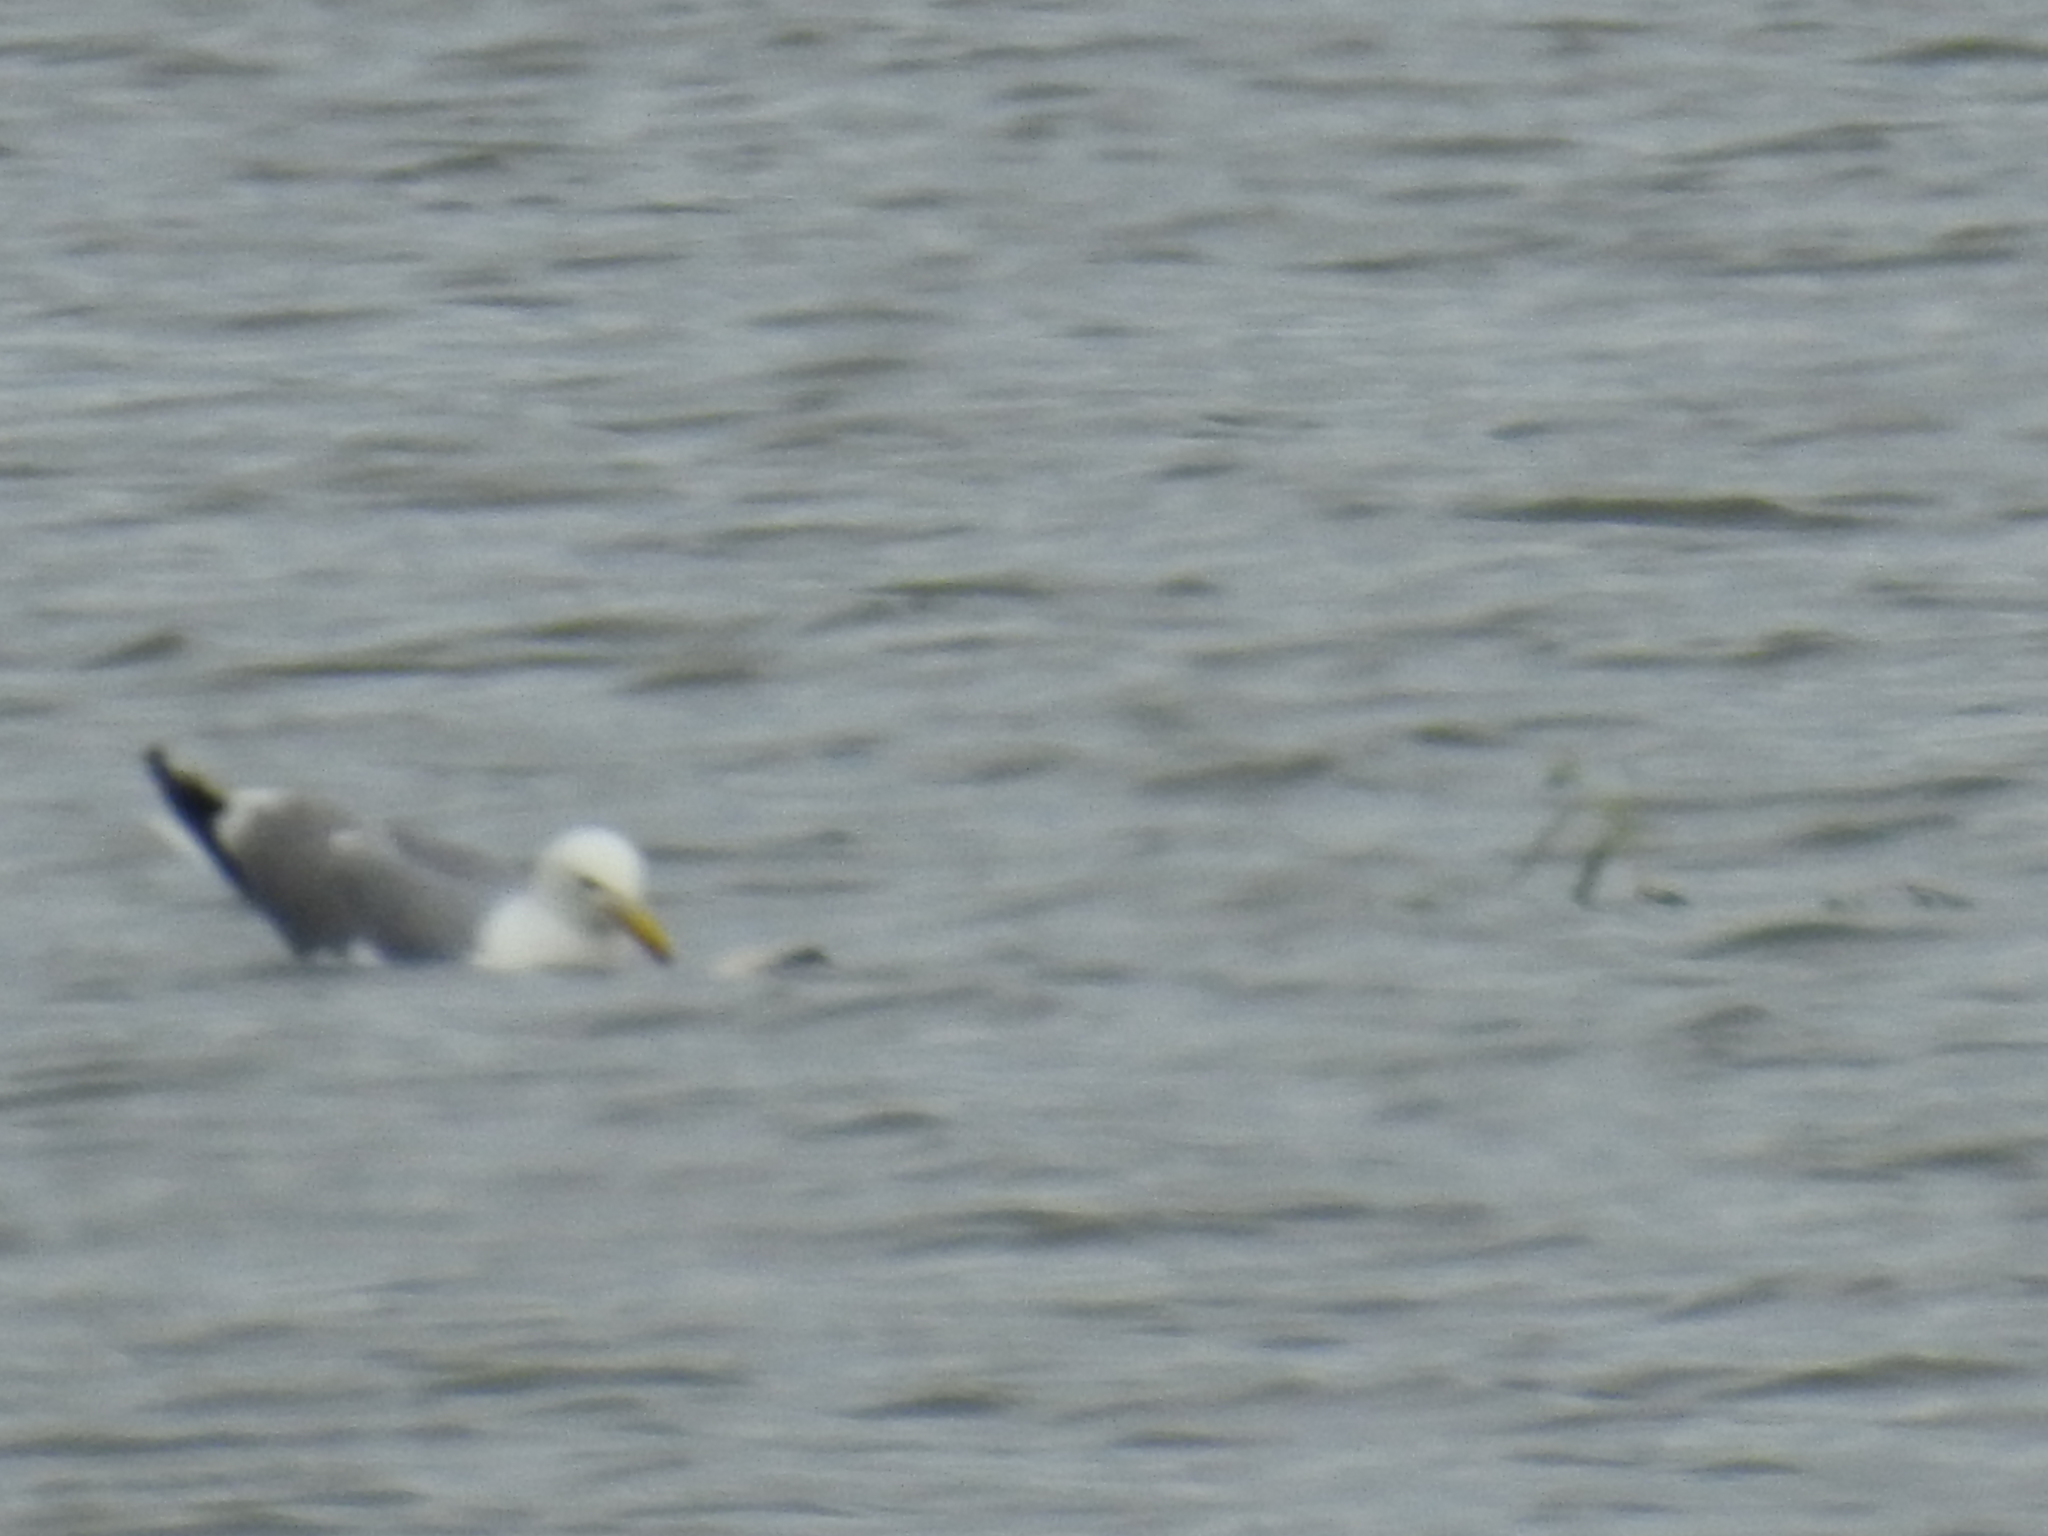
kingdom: Animalia
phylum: Chordata
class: Aves
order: Charadriiformes
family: Laridae
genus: Larus
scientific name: Larus californicus
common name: California gull
